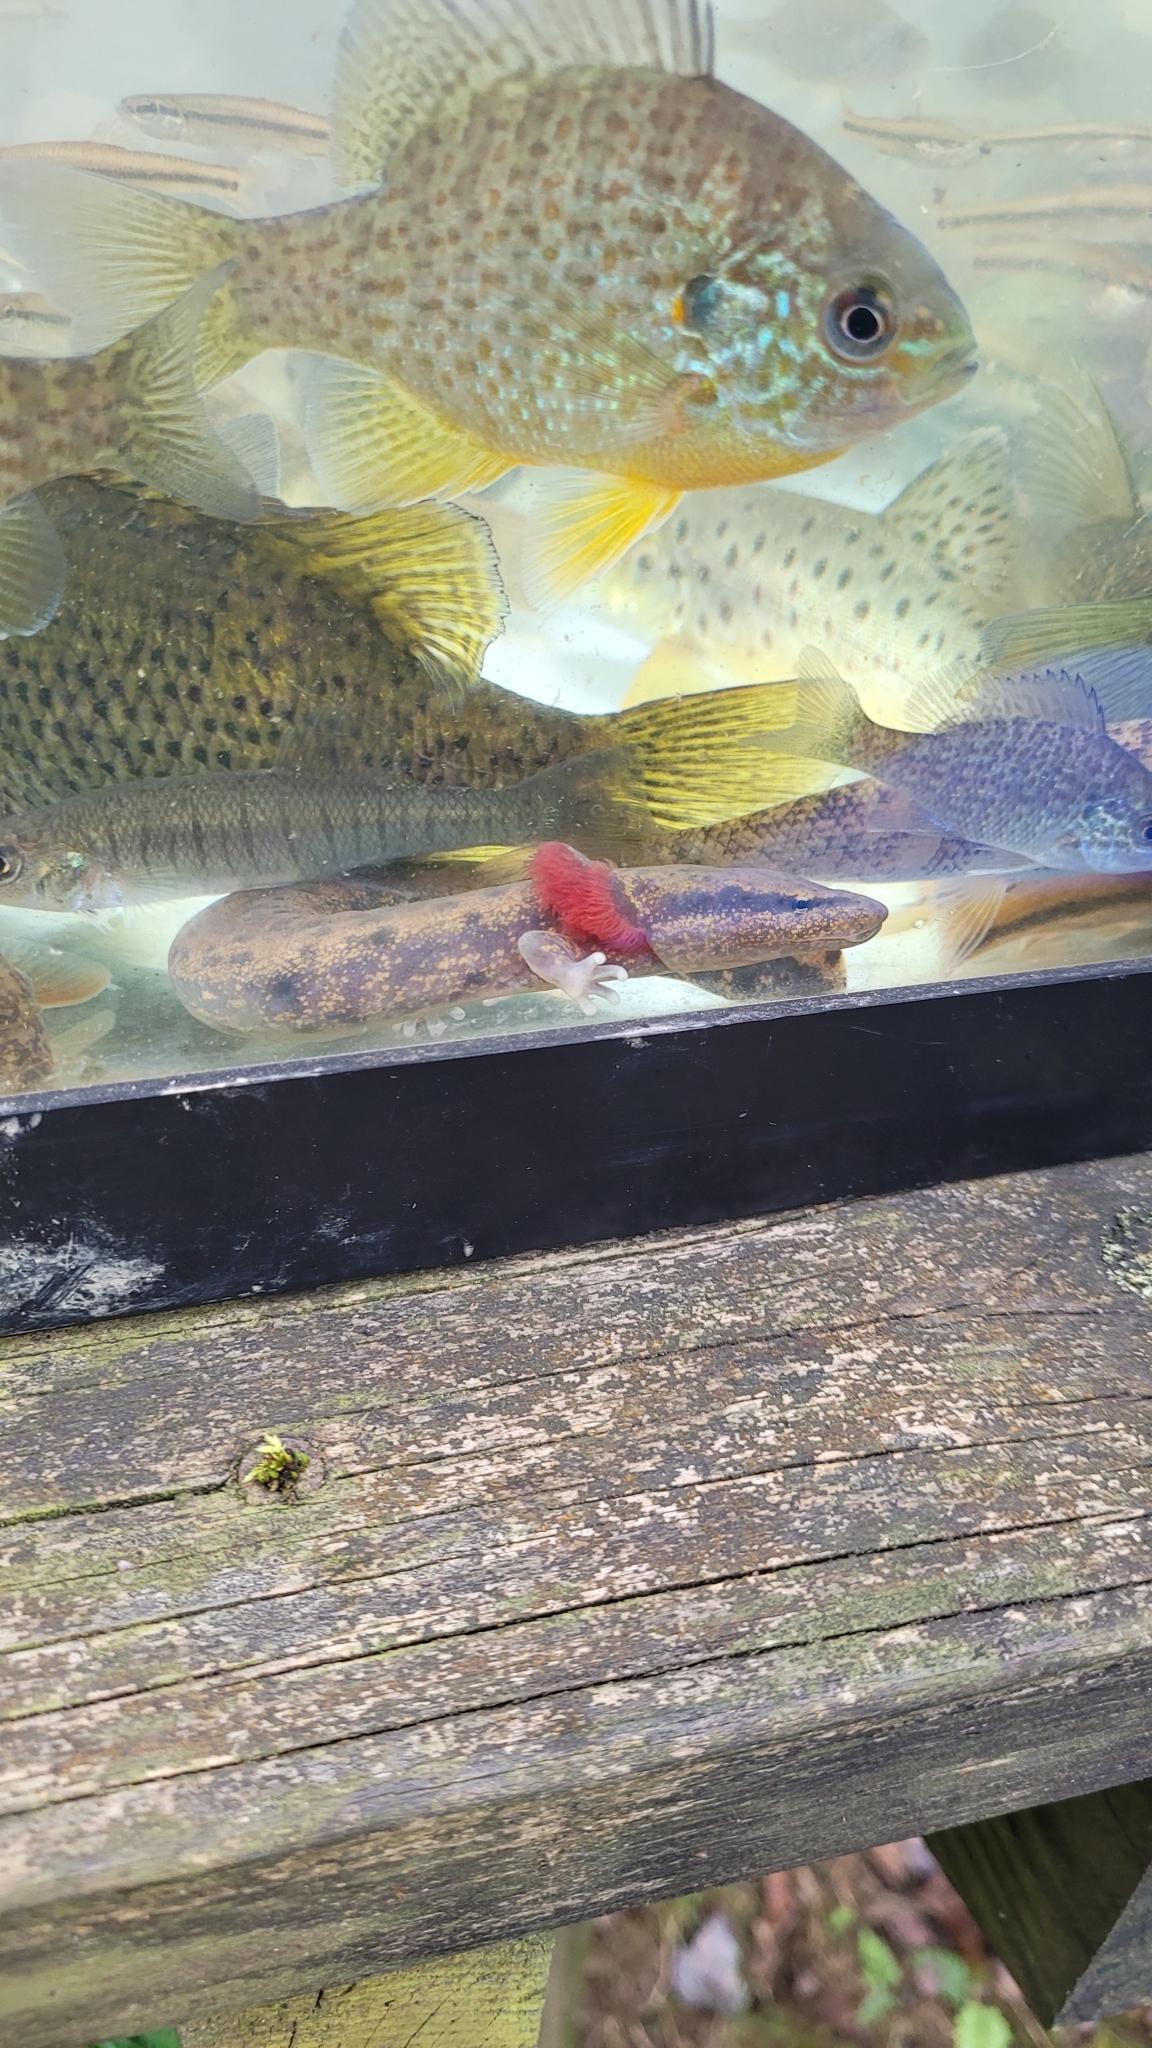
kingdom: Animalia
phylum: Chordata
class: Amphibia
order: Caudata
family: Proteidae
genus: Necturus
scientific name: Necturus maculosus
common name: Mudpuppy
